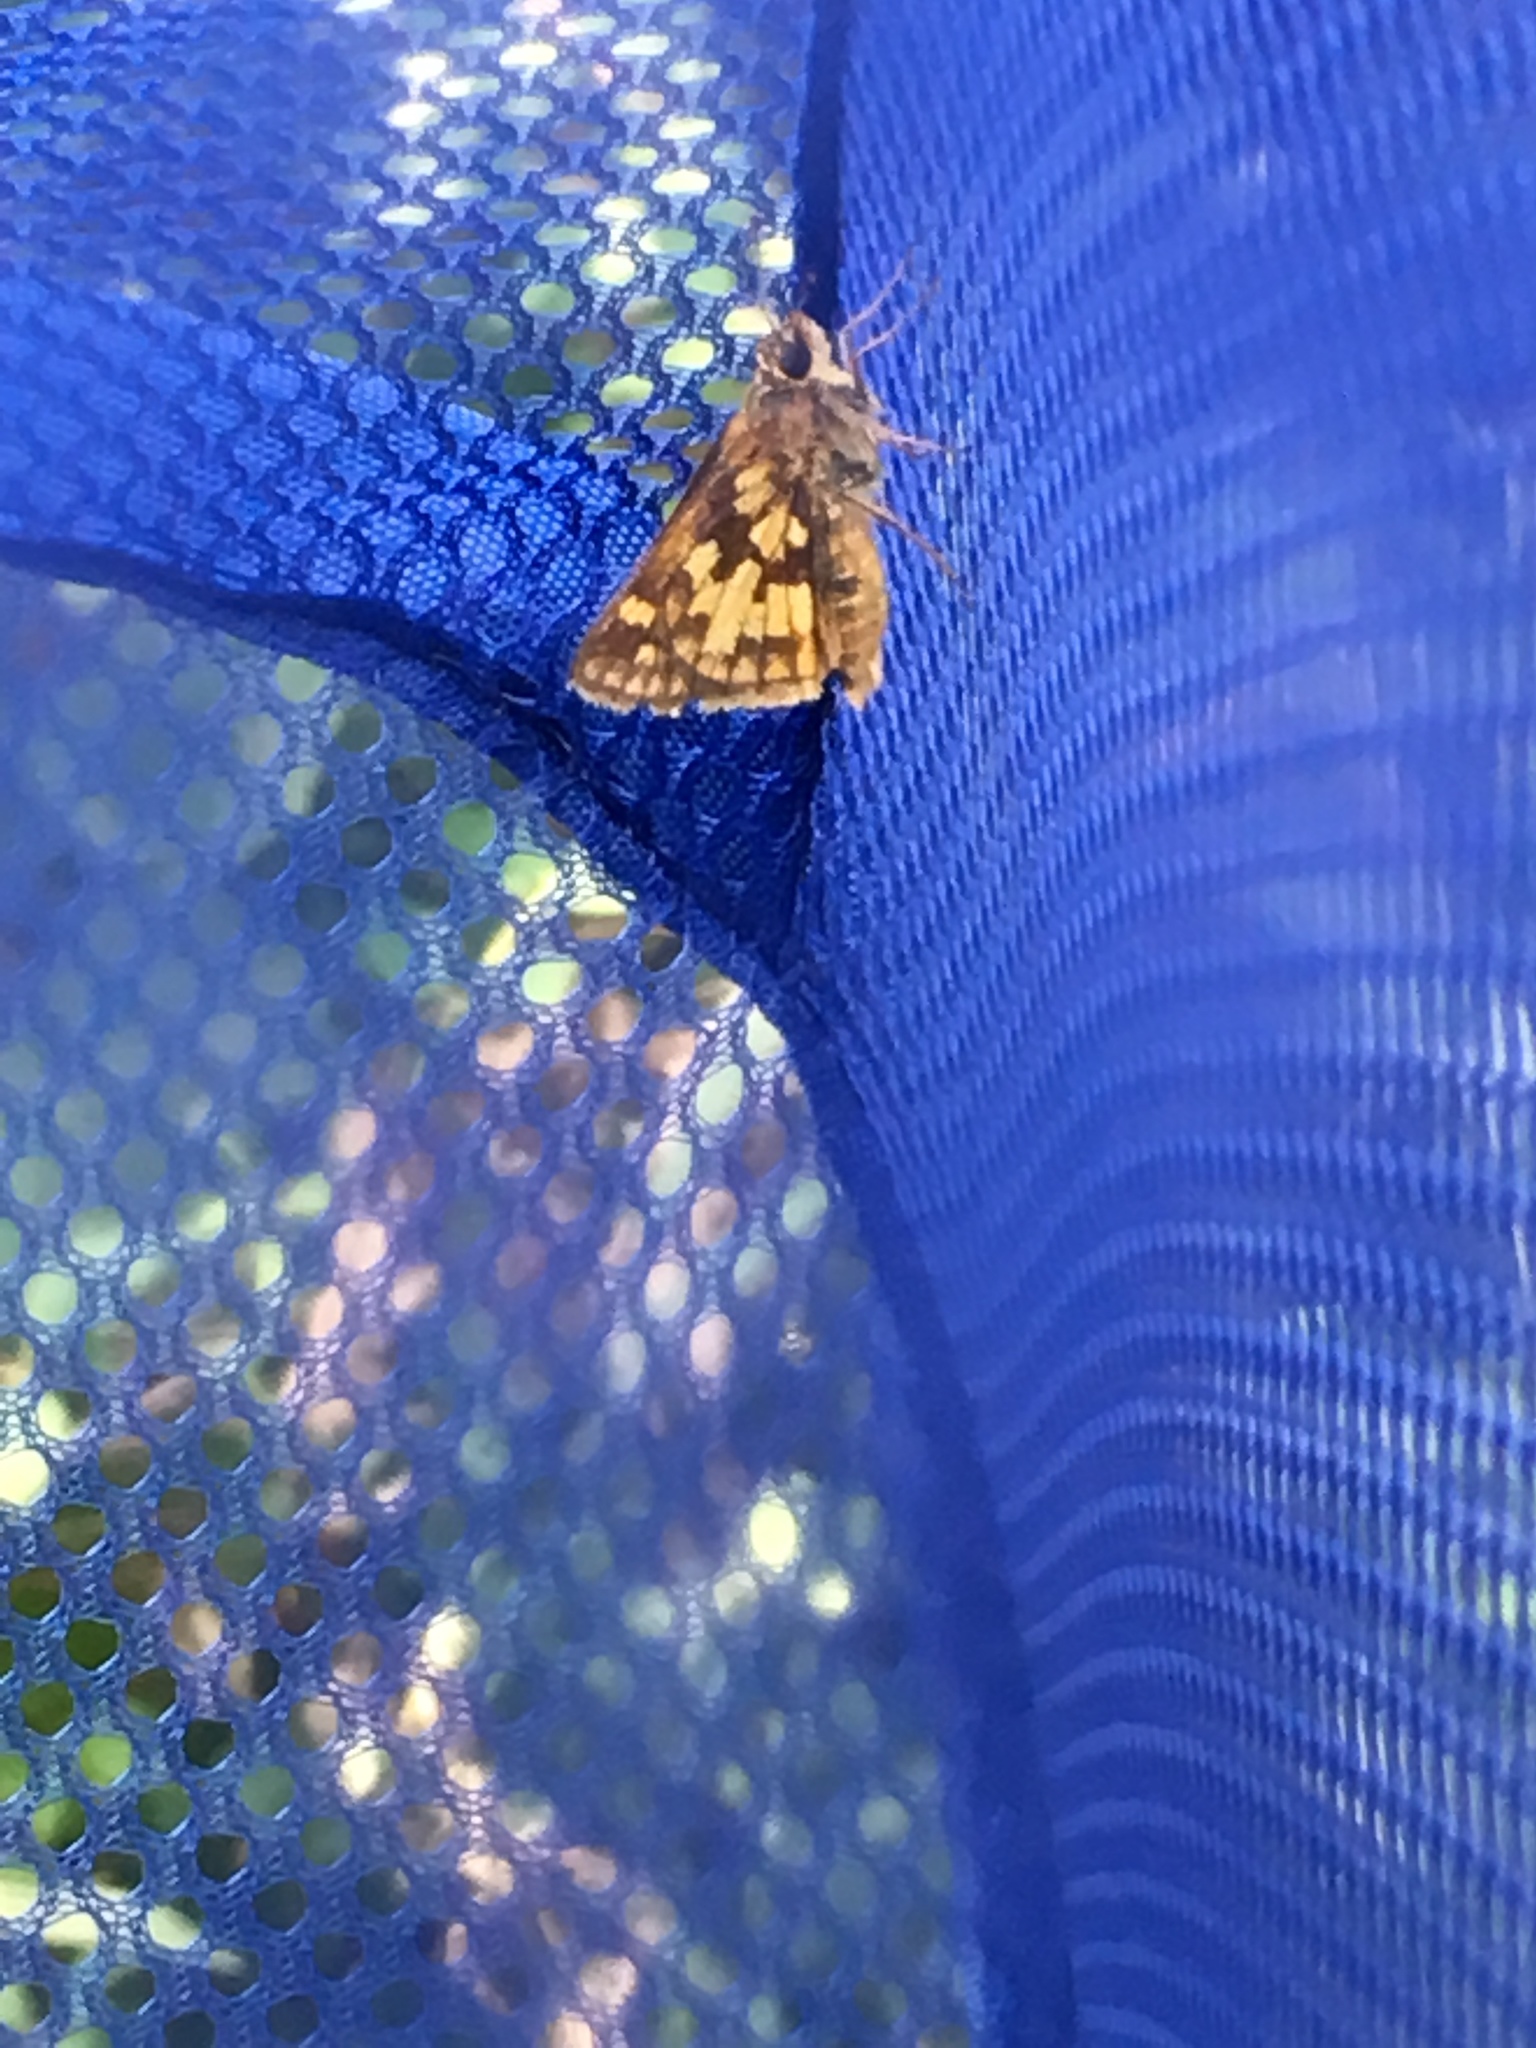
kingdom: Animalia
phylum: Arthropoda
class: Insecta
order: Lepidoptera
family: Hesperiidae
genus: Polites
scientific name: Polites coras
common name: Peck's skipper
